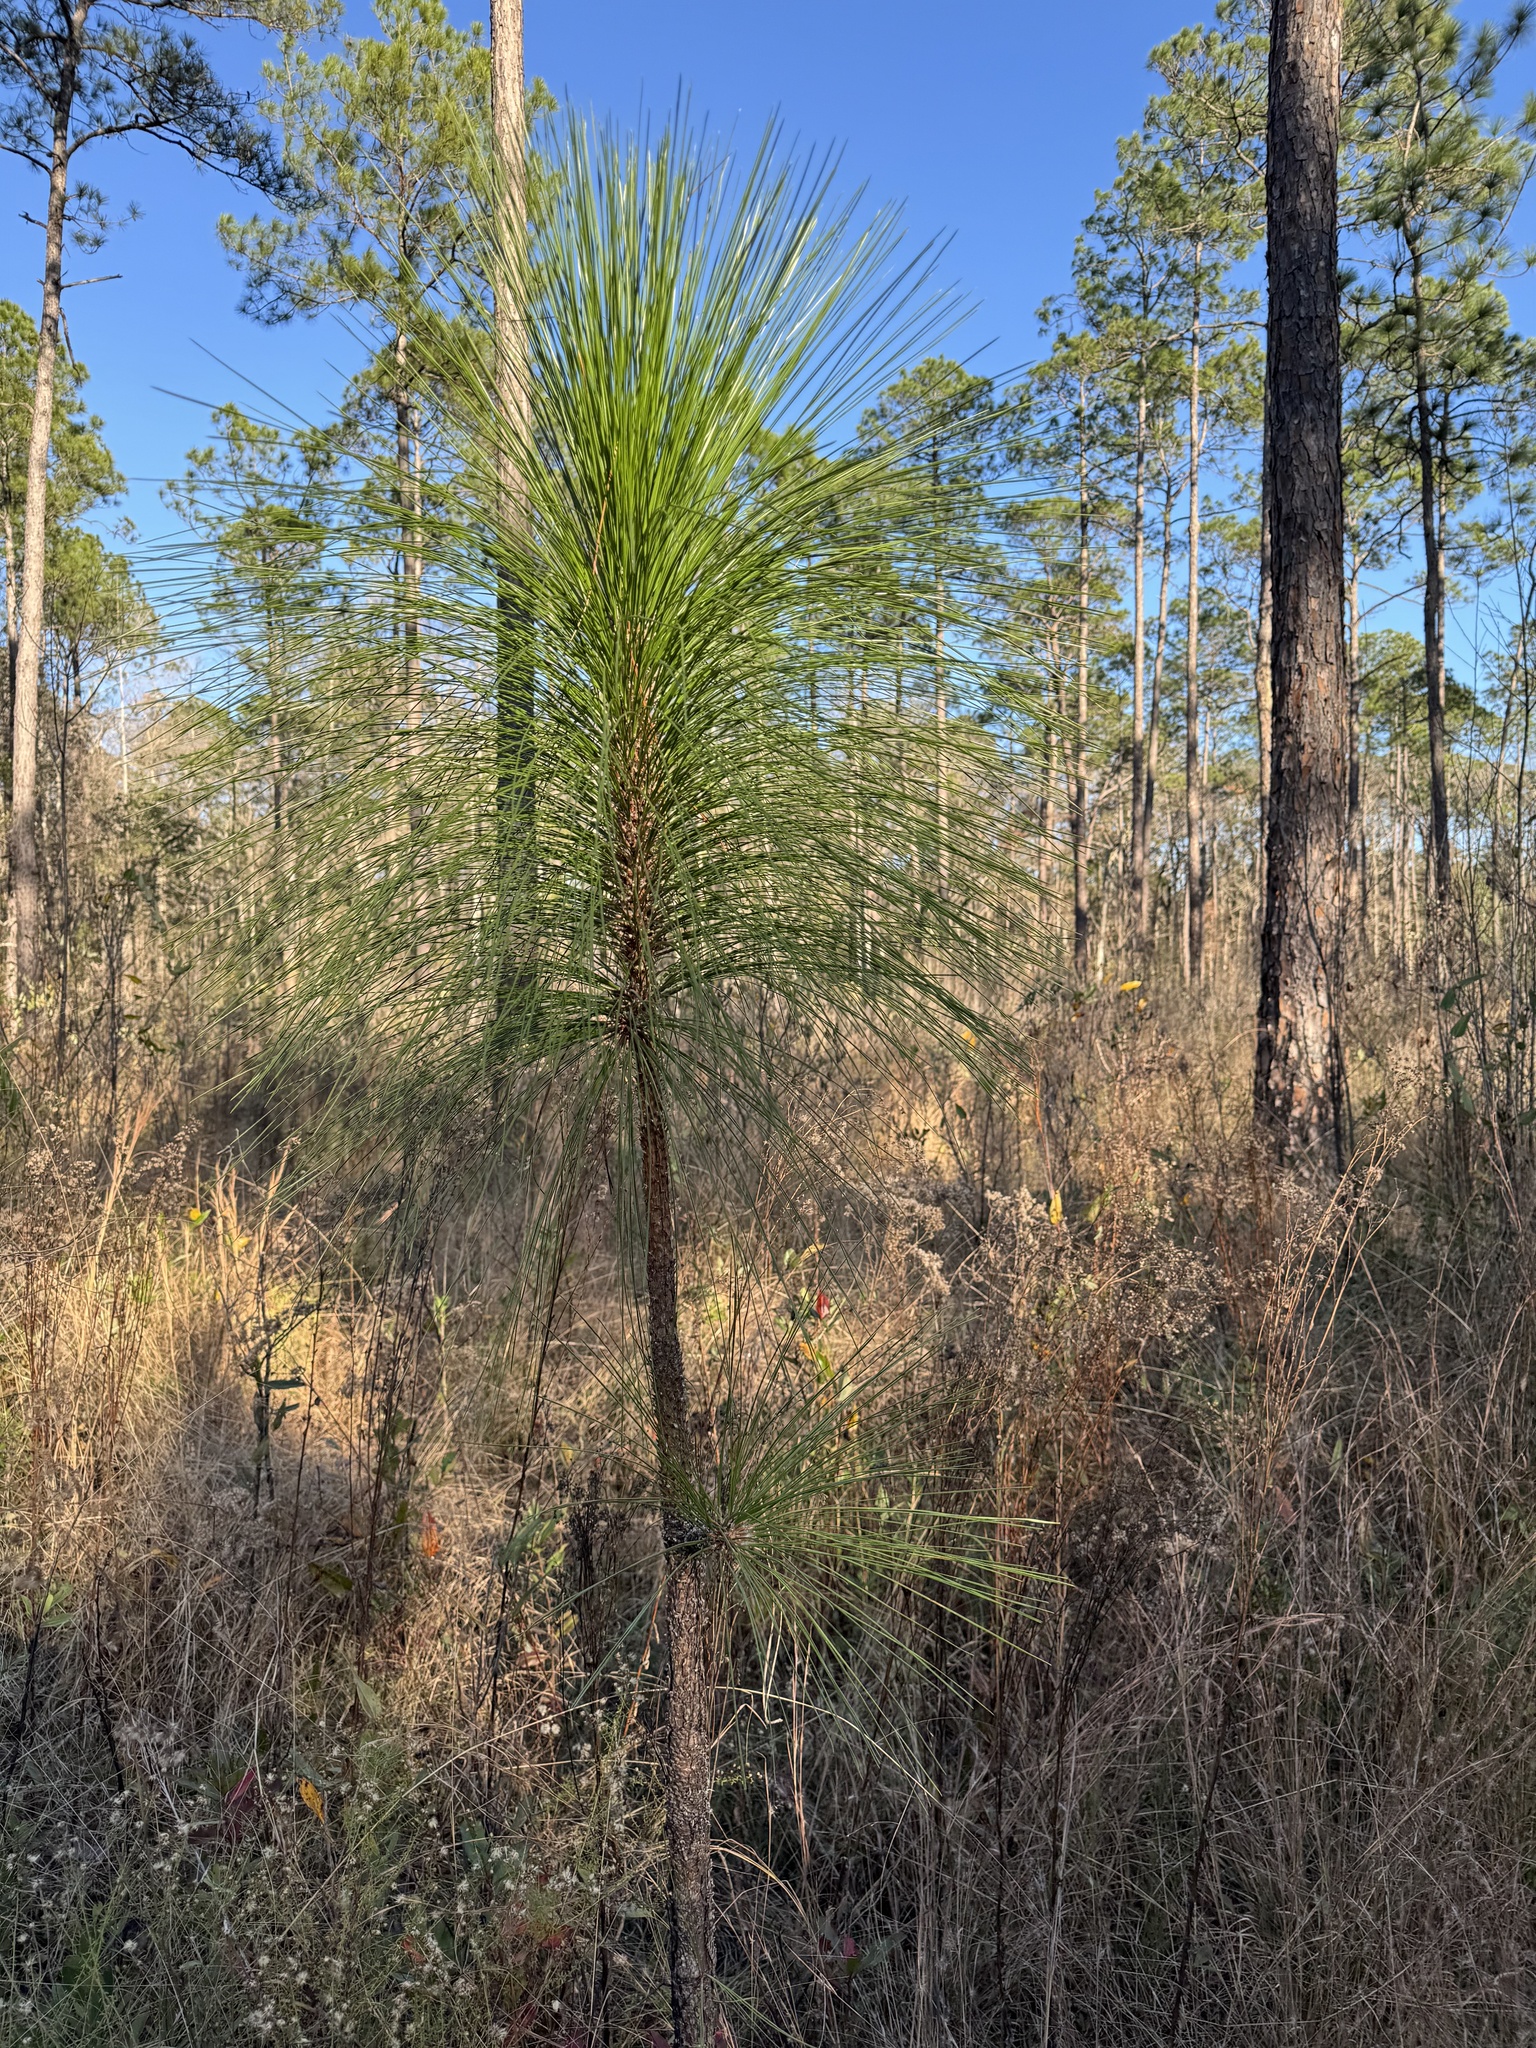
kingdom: Plantae
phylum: Tracheophyta
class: Pinopsida
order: Pinales
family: Pinaceae
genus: Pinus
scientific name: Pinus palustris
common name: Longleaf pine
